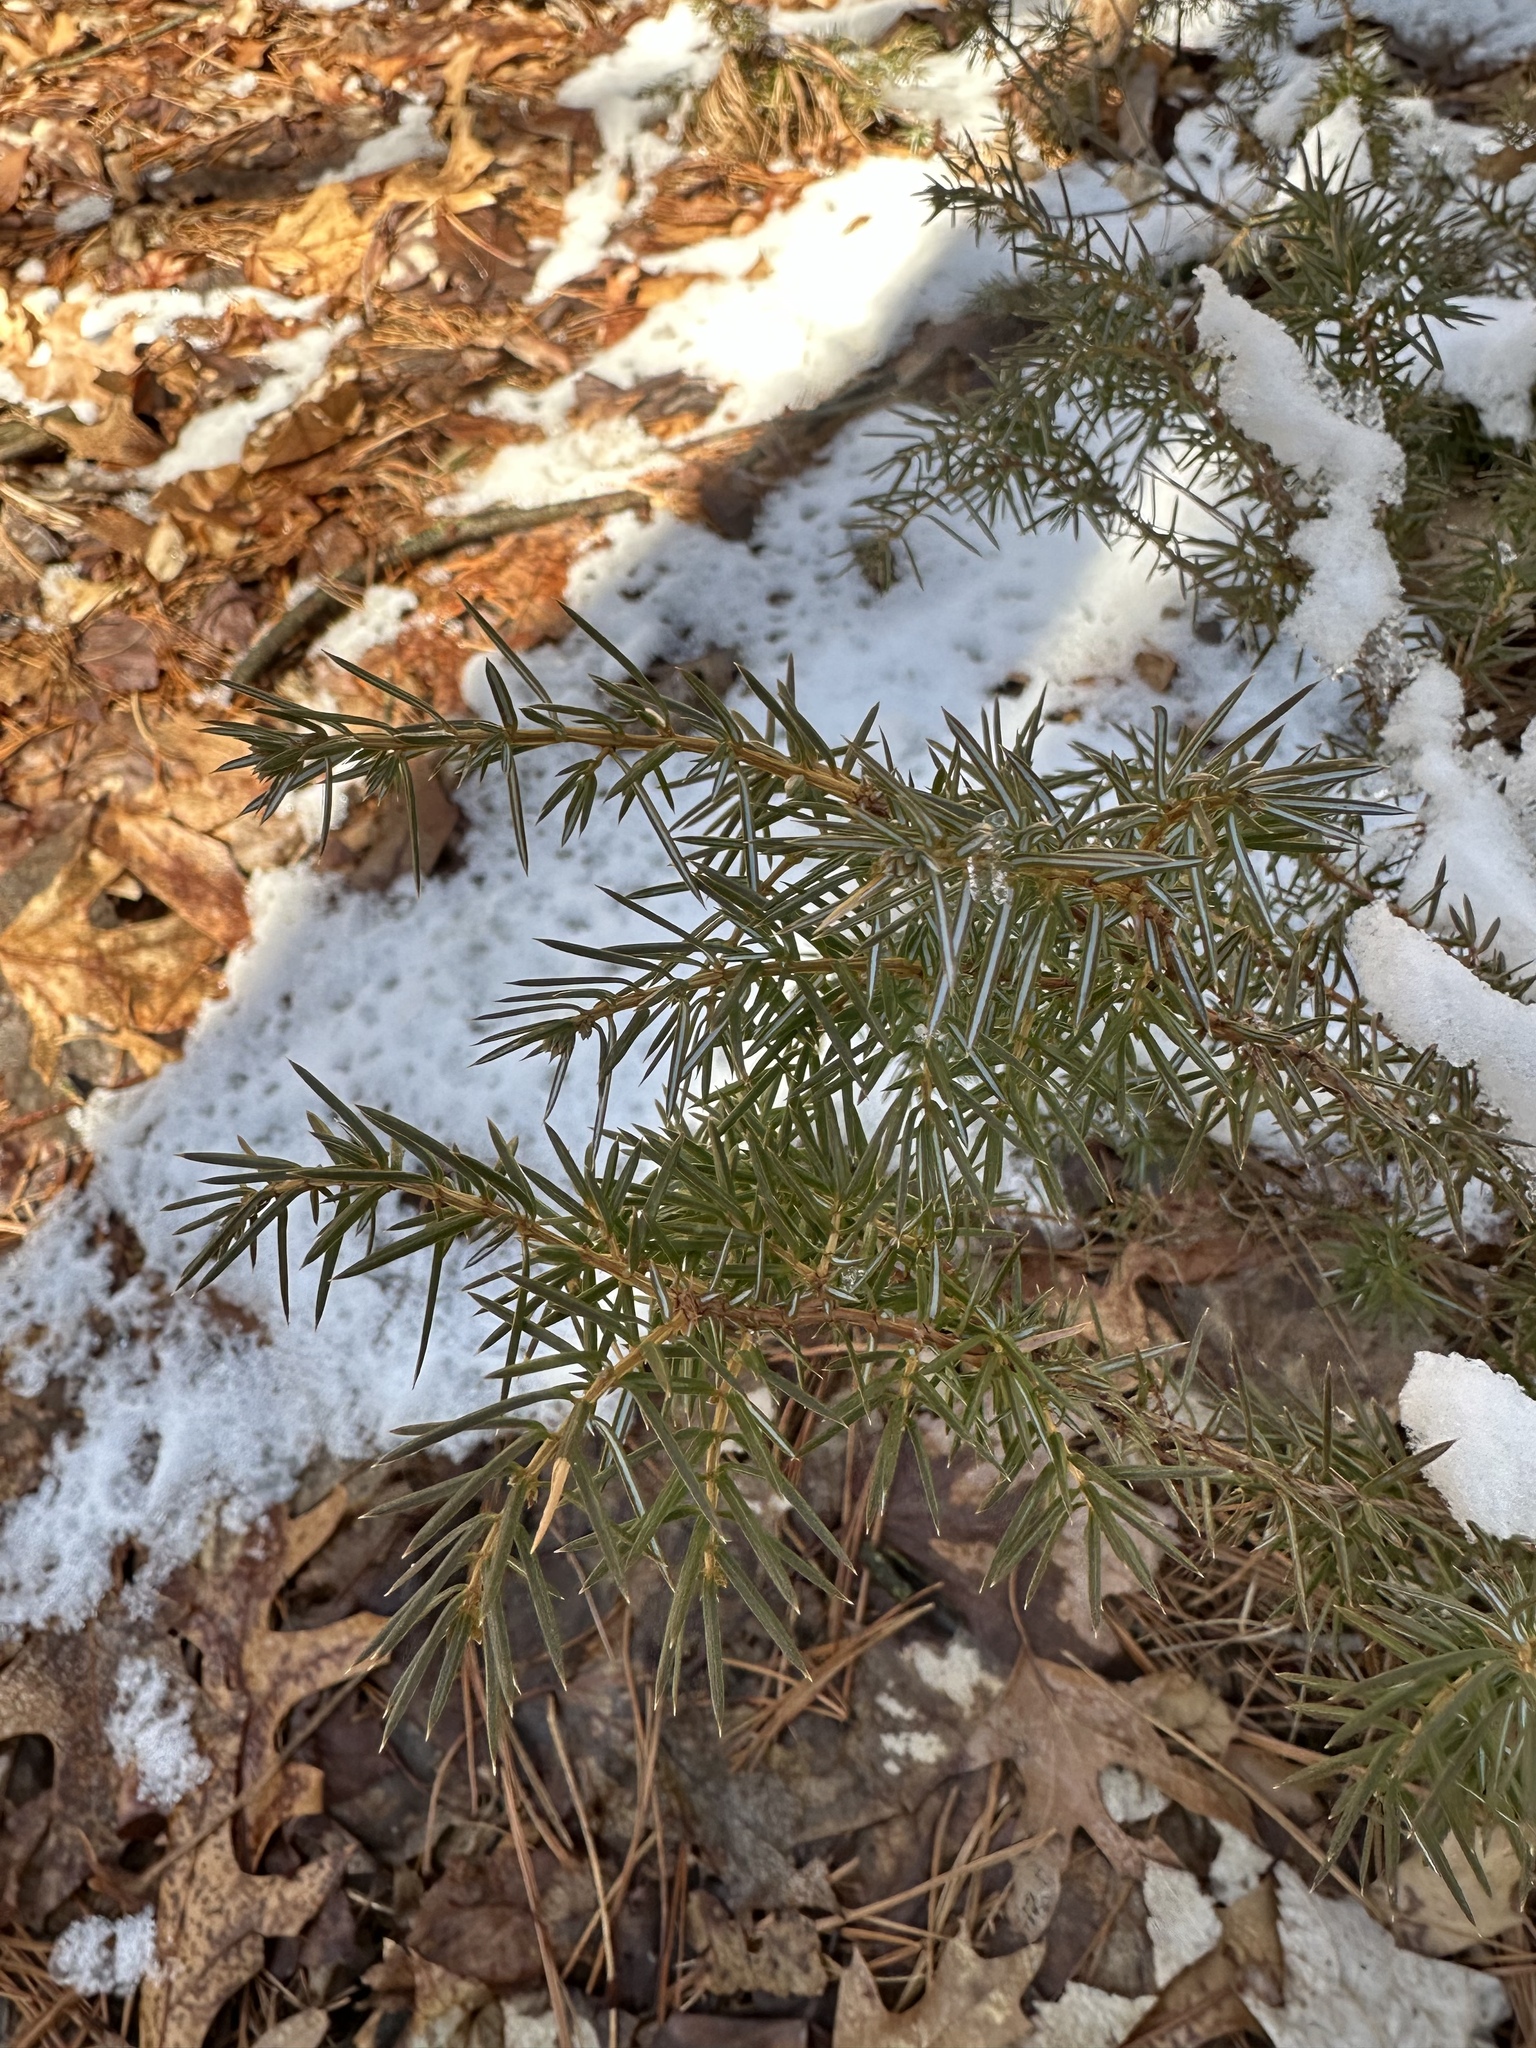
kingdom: Plantae
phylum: Tracheophyta
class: Pinopsida
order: Pinales
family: Cupressaceae
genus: Juniperus
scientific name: Juniperus communis
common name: Common juniper
